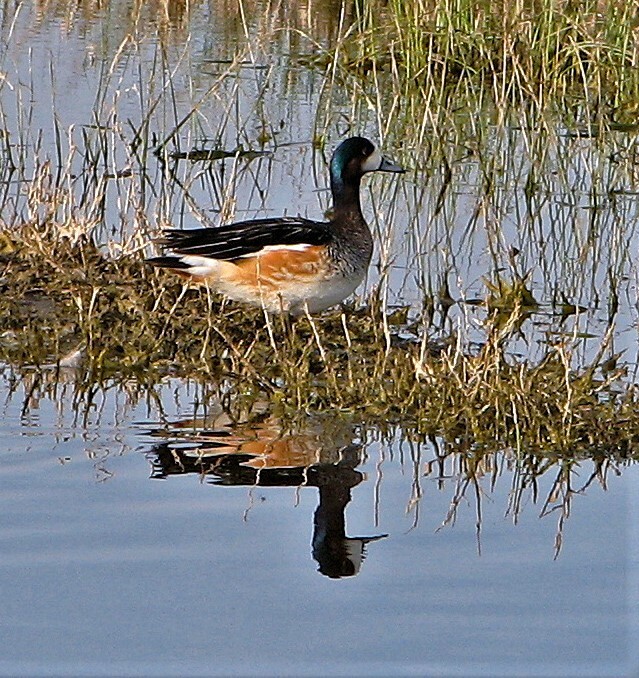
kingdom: Animalia
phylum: Chordata
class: Aves
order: Anseriformes
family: Anatidae
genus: Mareca
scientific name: Mareca sibilatrix
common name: Chiloe wigeon
